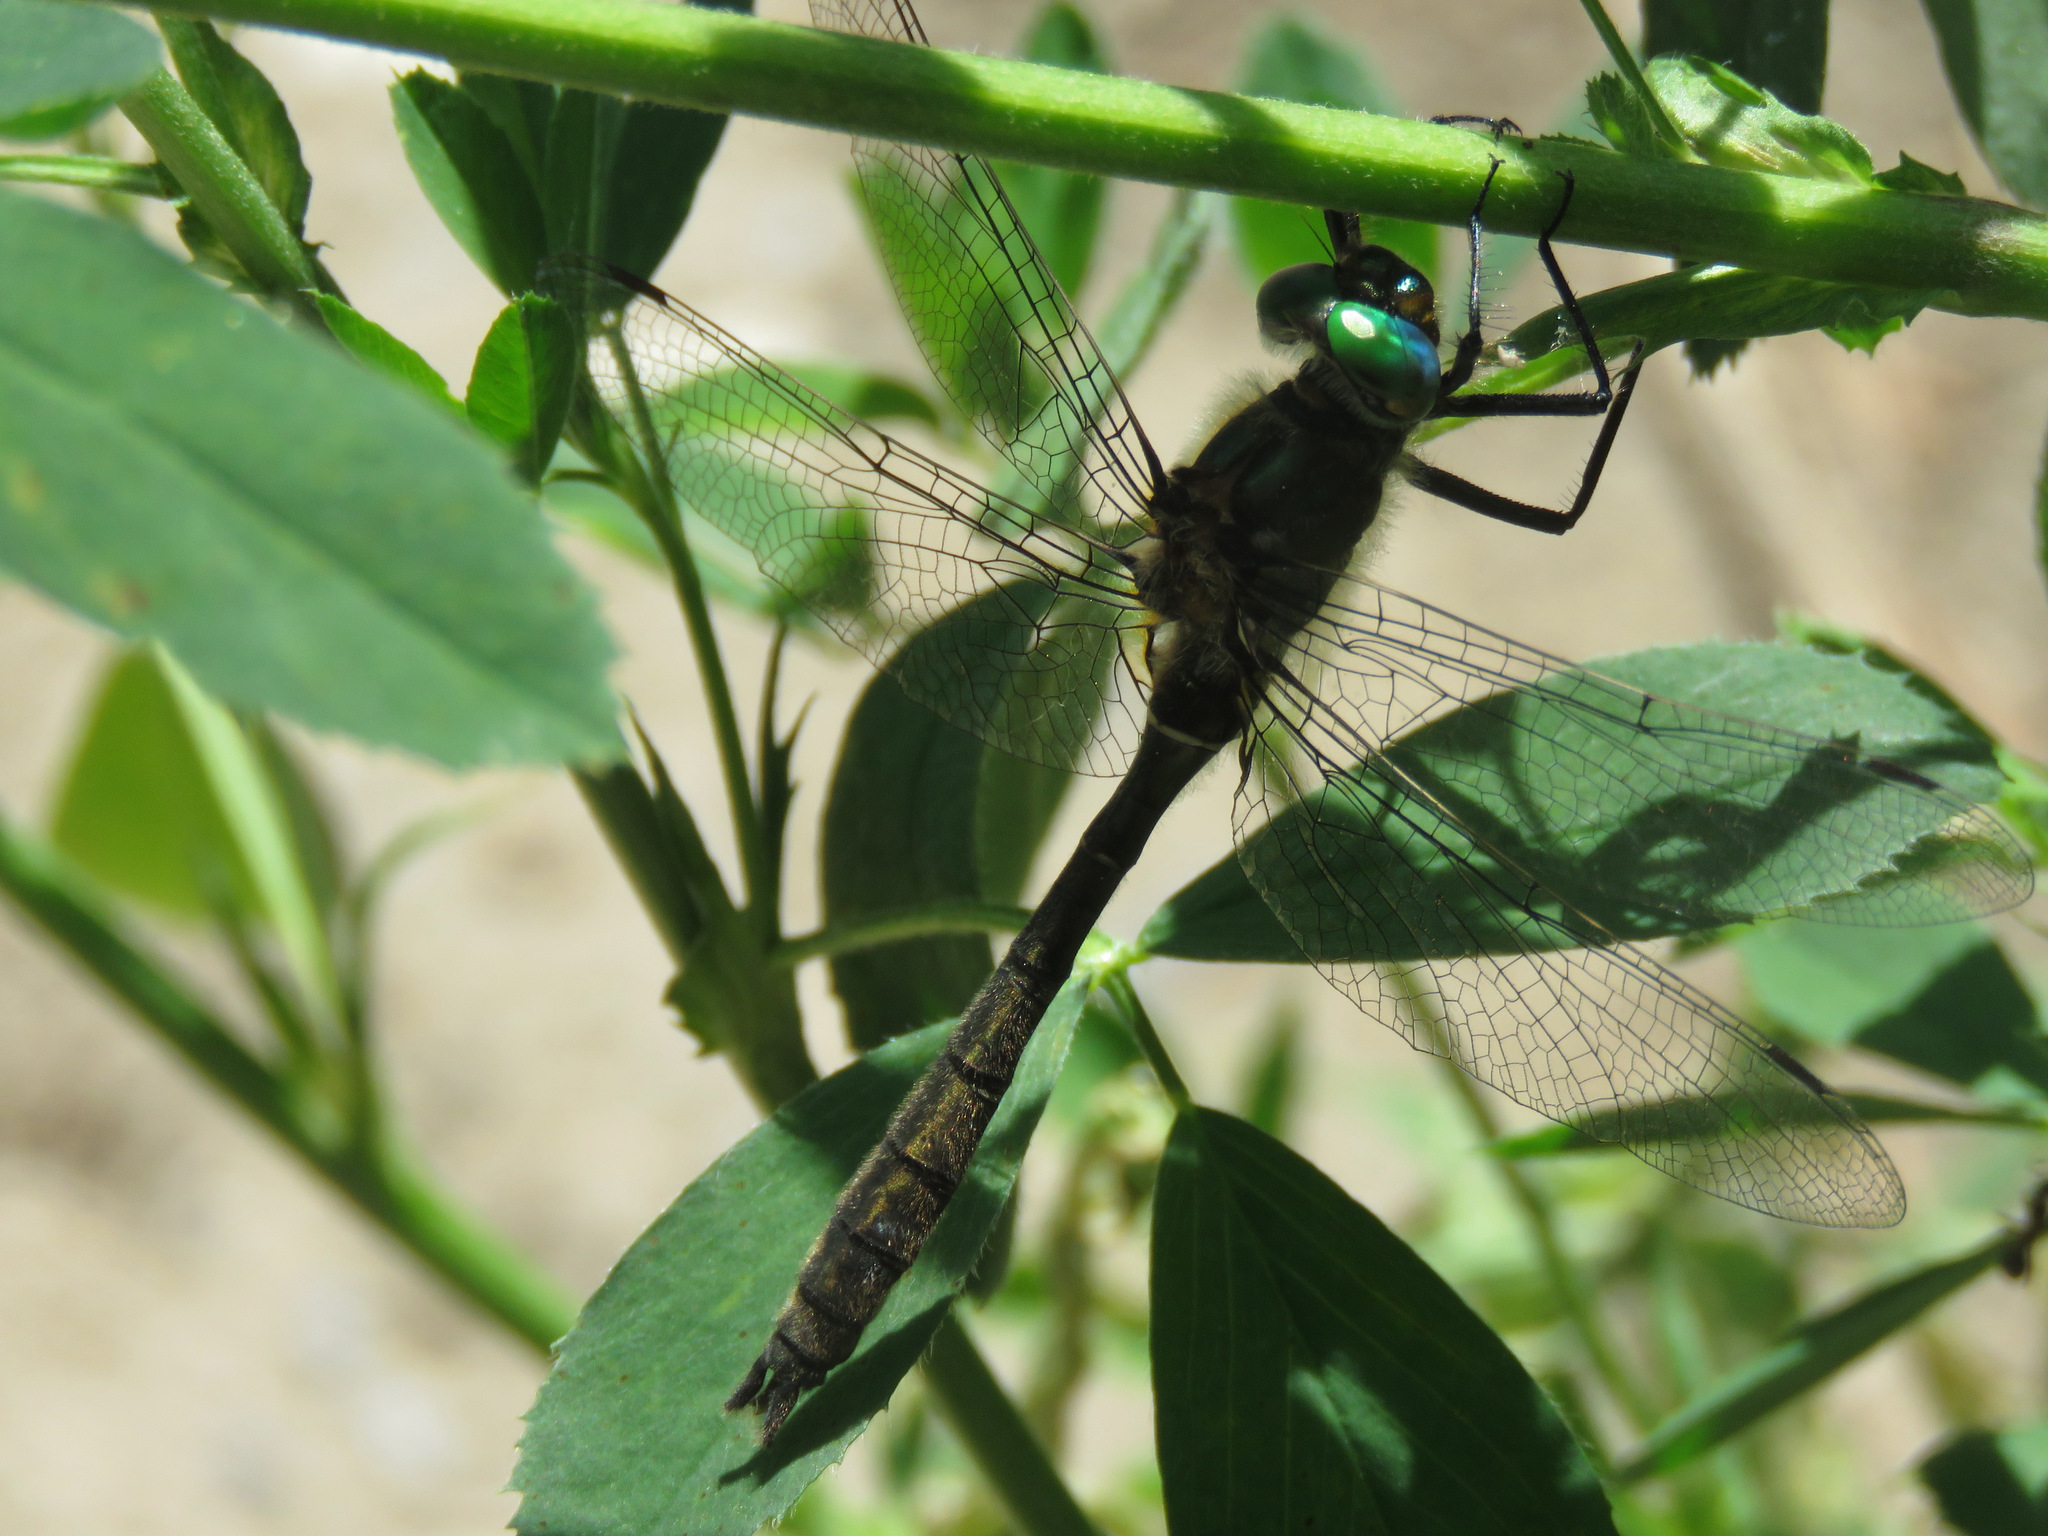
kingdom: Animalia
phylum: Arthropoda
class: Insecta
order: Odonata
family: Corduliidae
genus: Cordulia
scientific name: Cordulia shurtleffii
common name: American emerald
